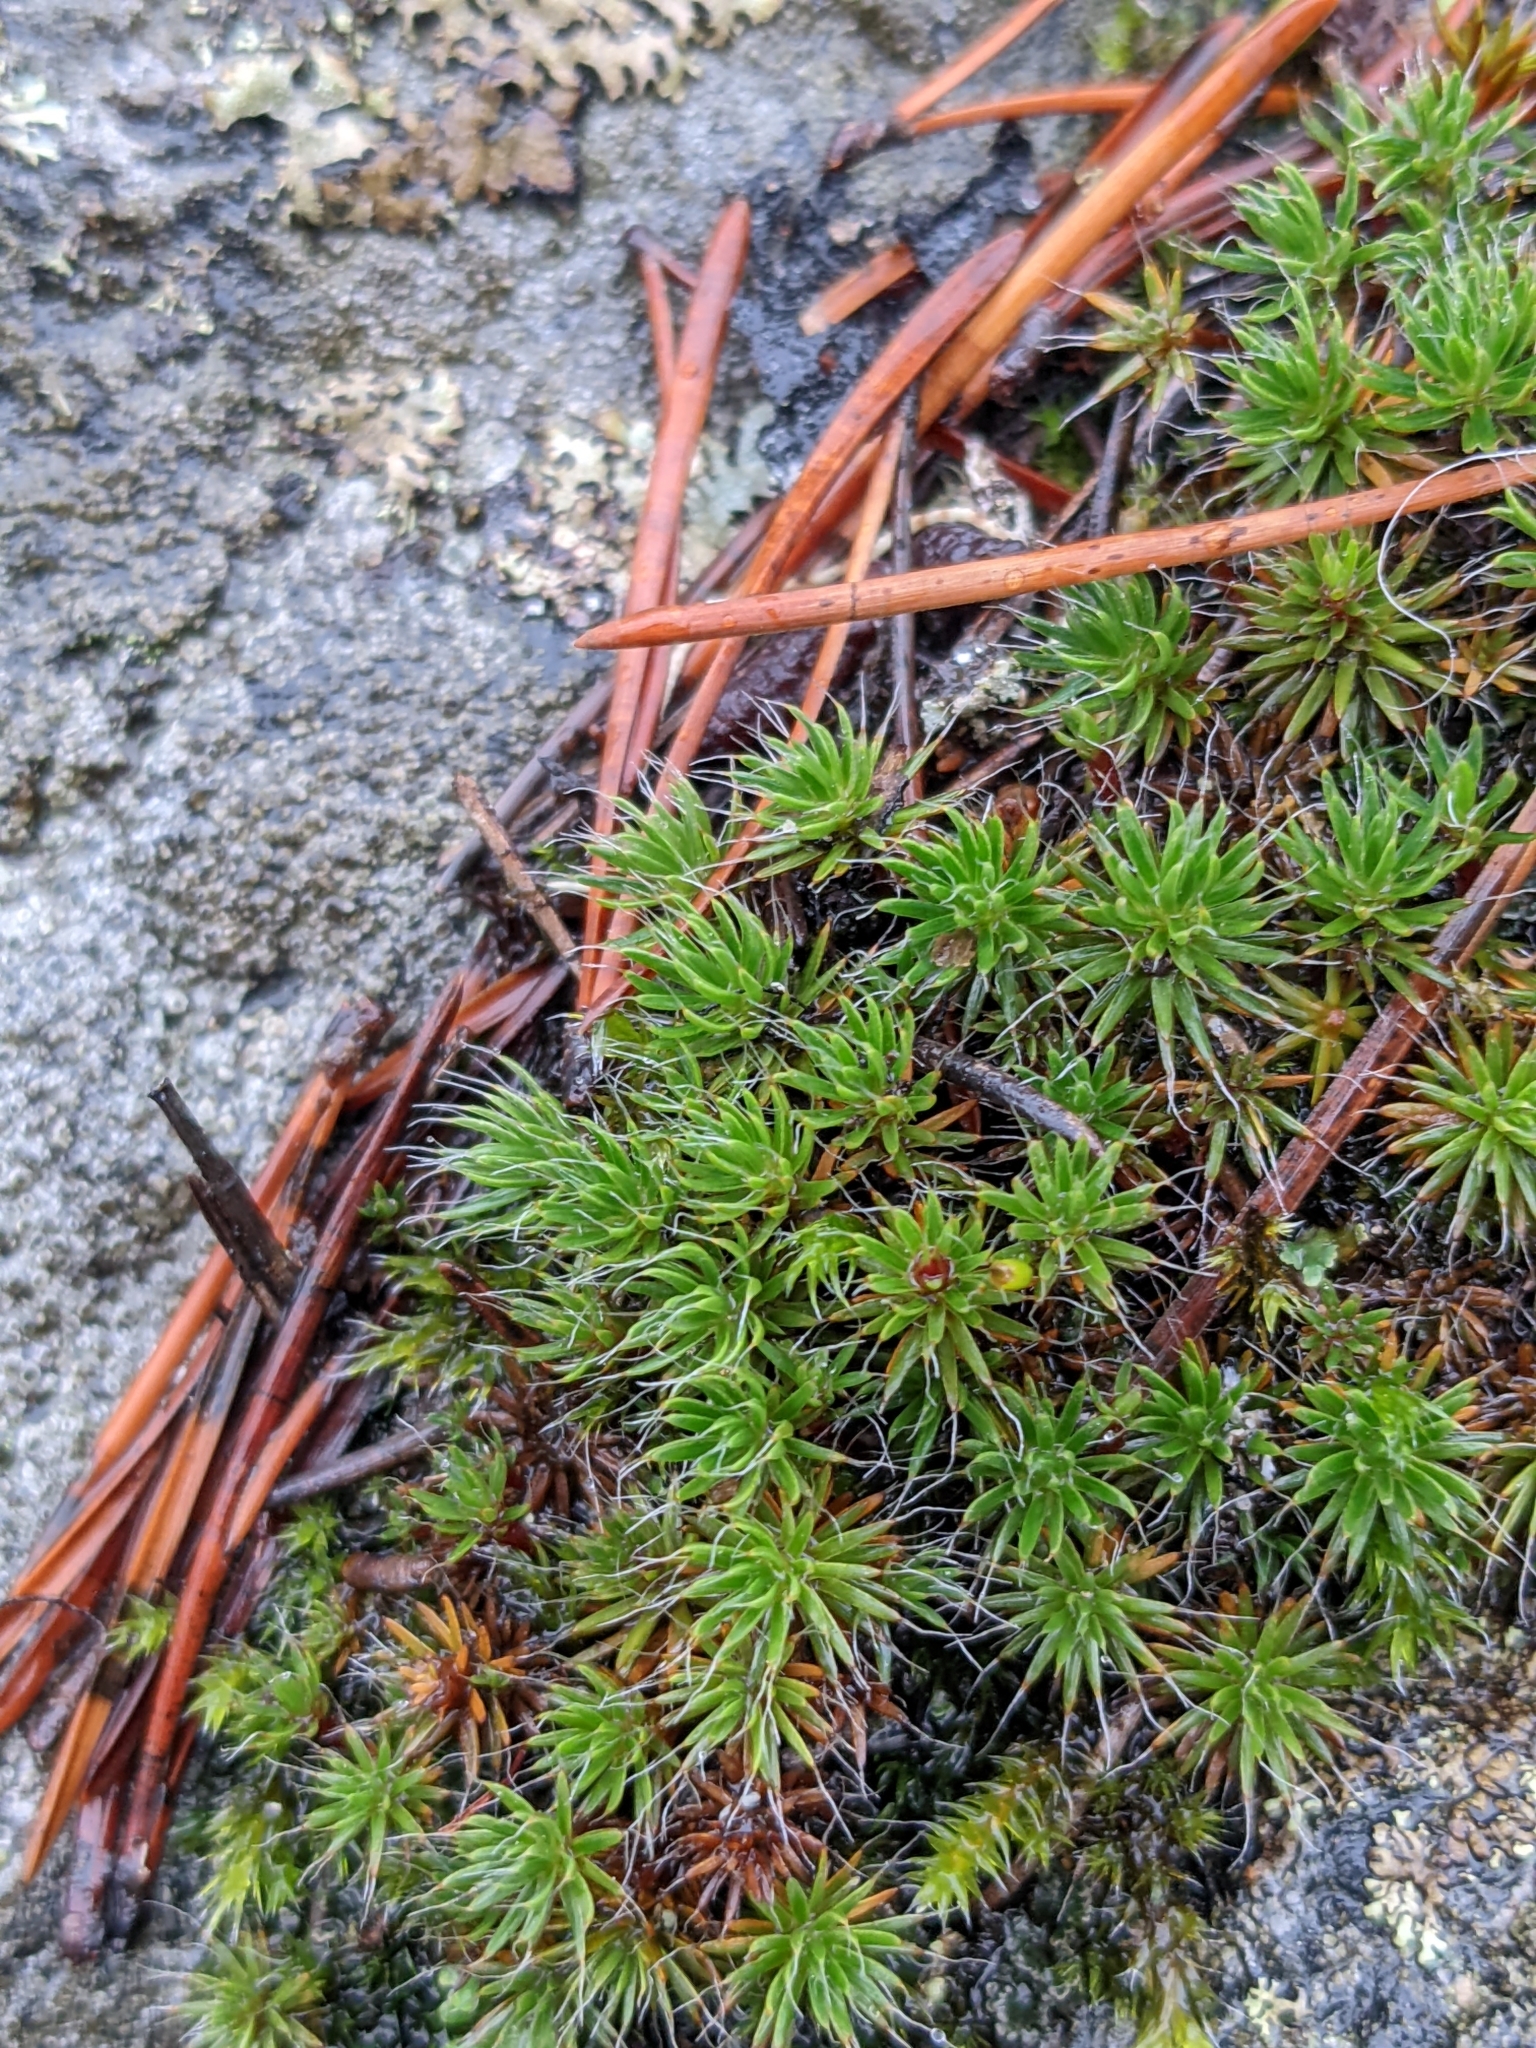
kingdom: Plantae
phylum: Bryophyta
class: Polytrichopsida
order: Polytrichales
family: Polytrichaceae
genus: Polytrichum
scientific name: Polytrichum piliferum
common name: Bristly haircap
